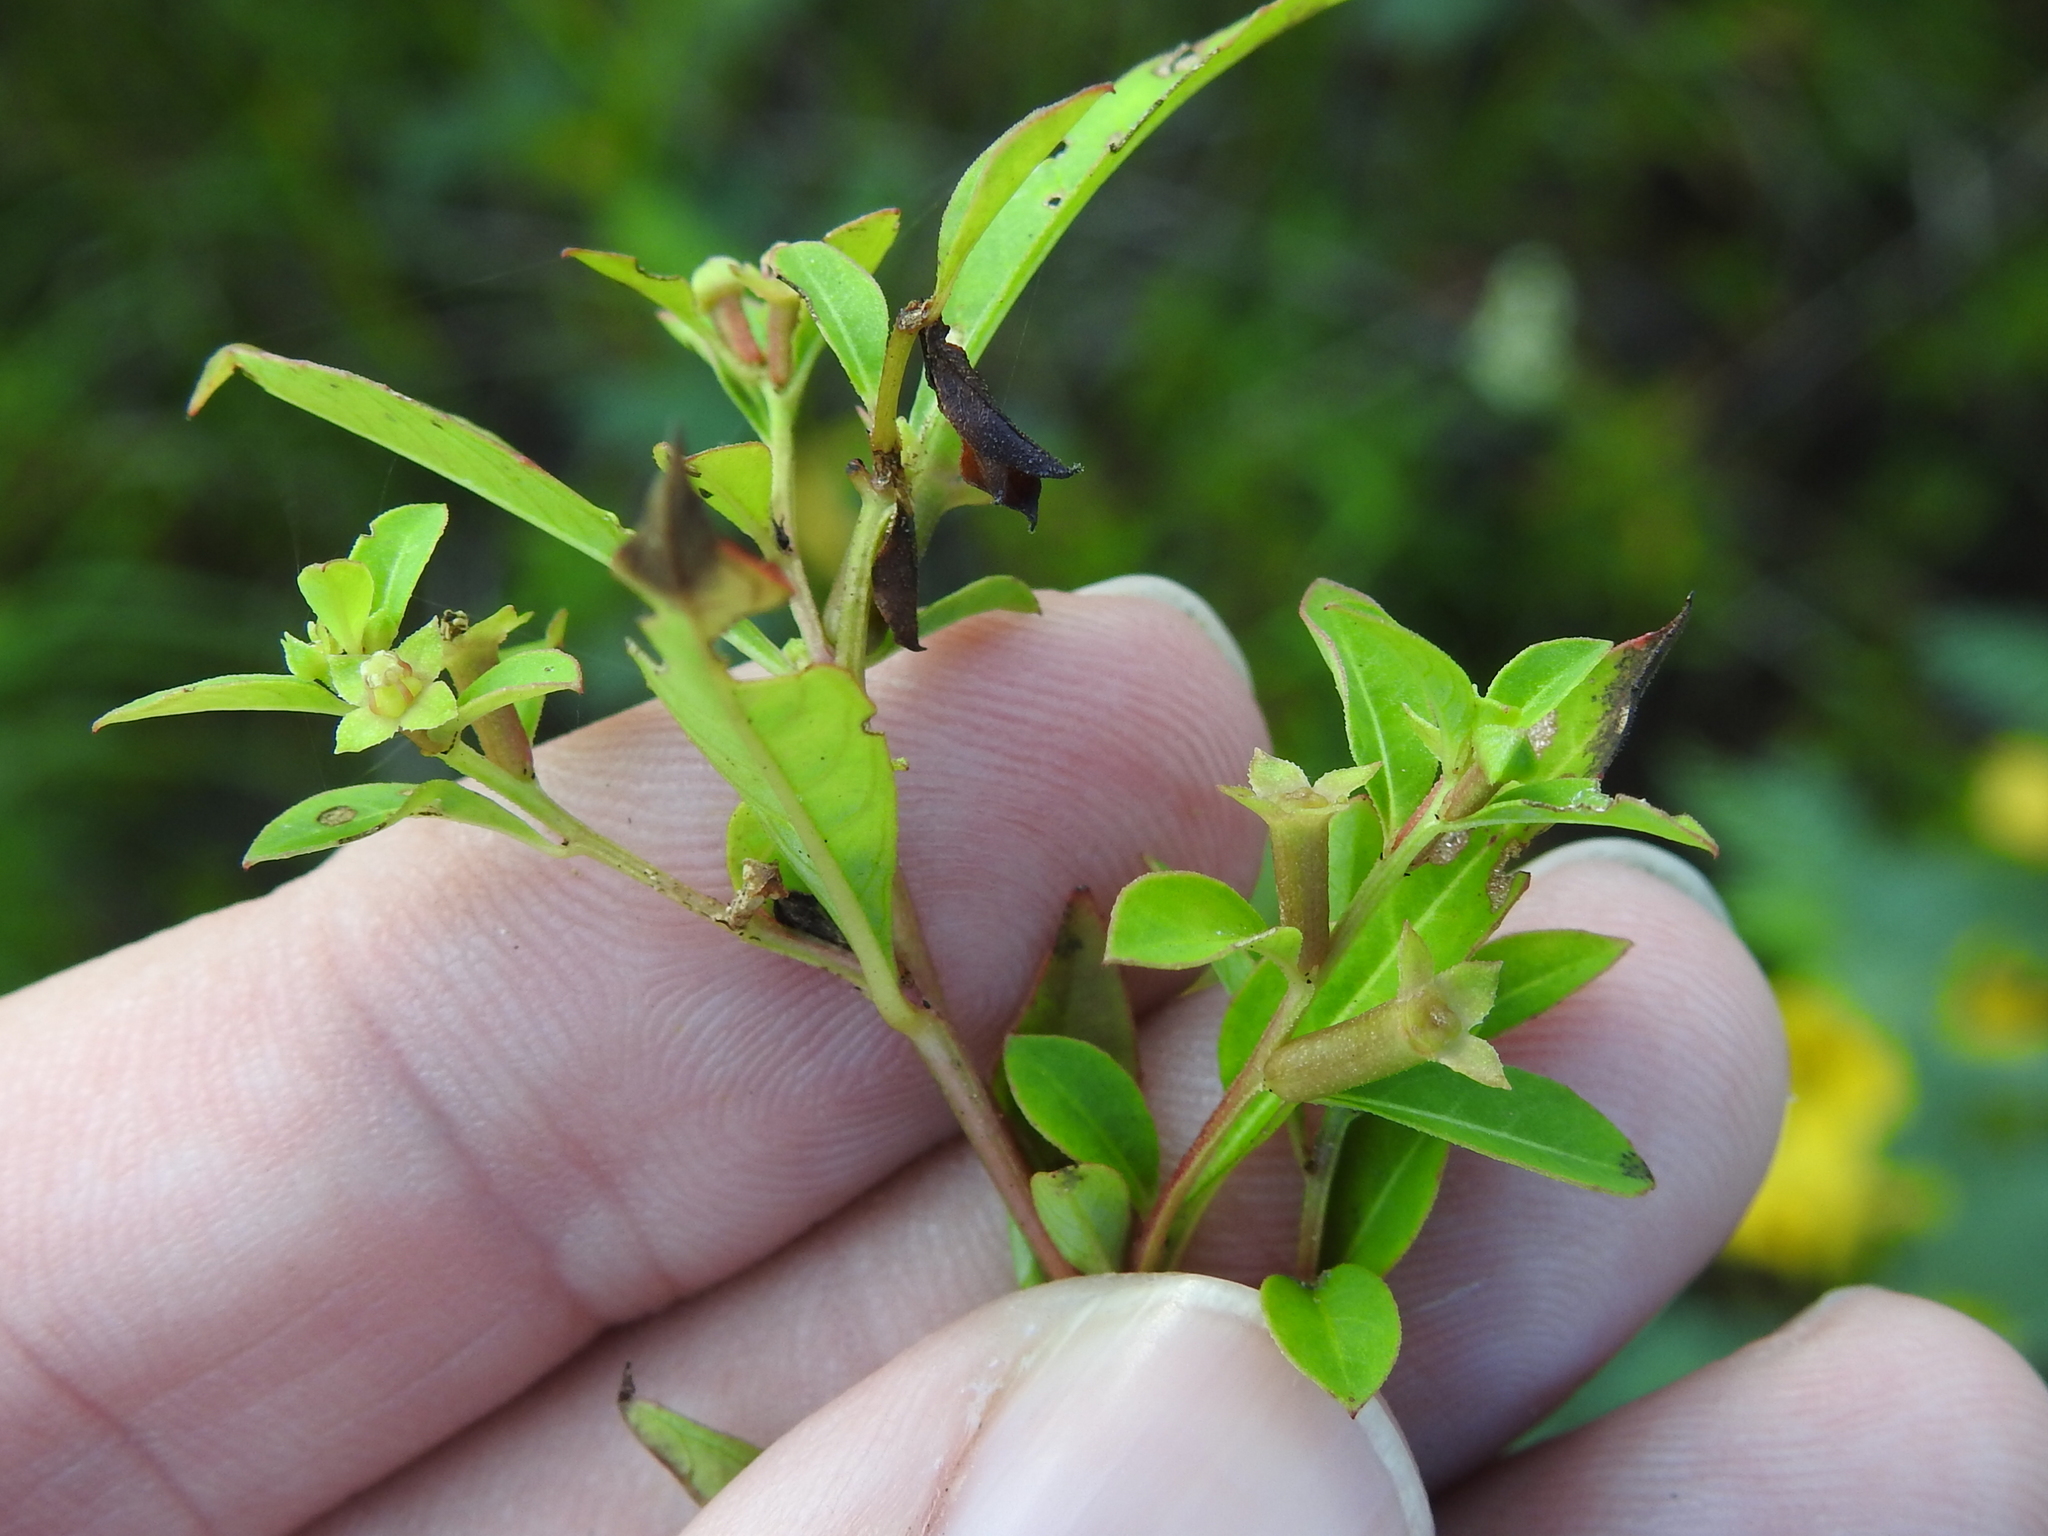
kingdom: Plantae
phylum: Tracheophyta
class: Magnoliopsida
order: Myrtales
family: Onagraceae
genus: Ludwigia
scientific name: Ludwigia glandulosa
